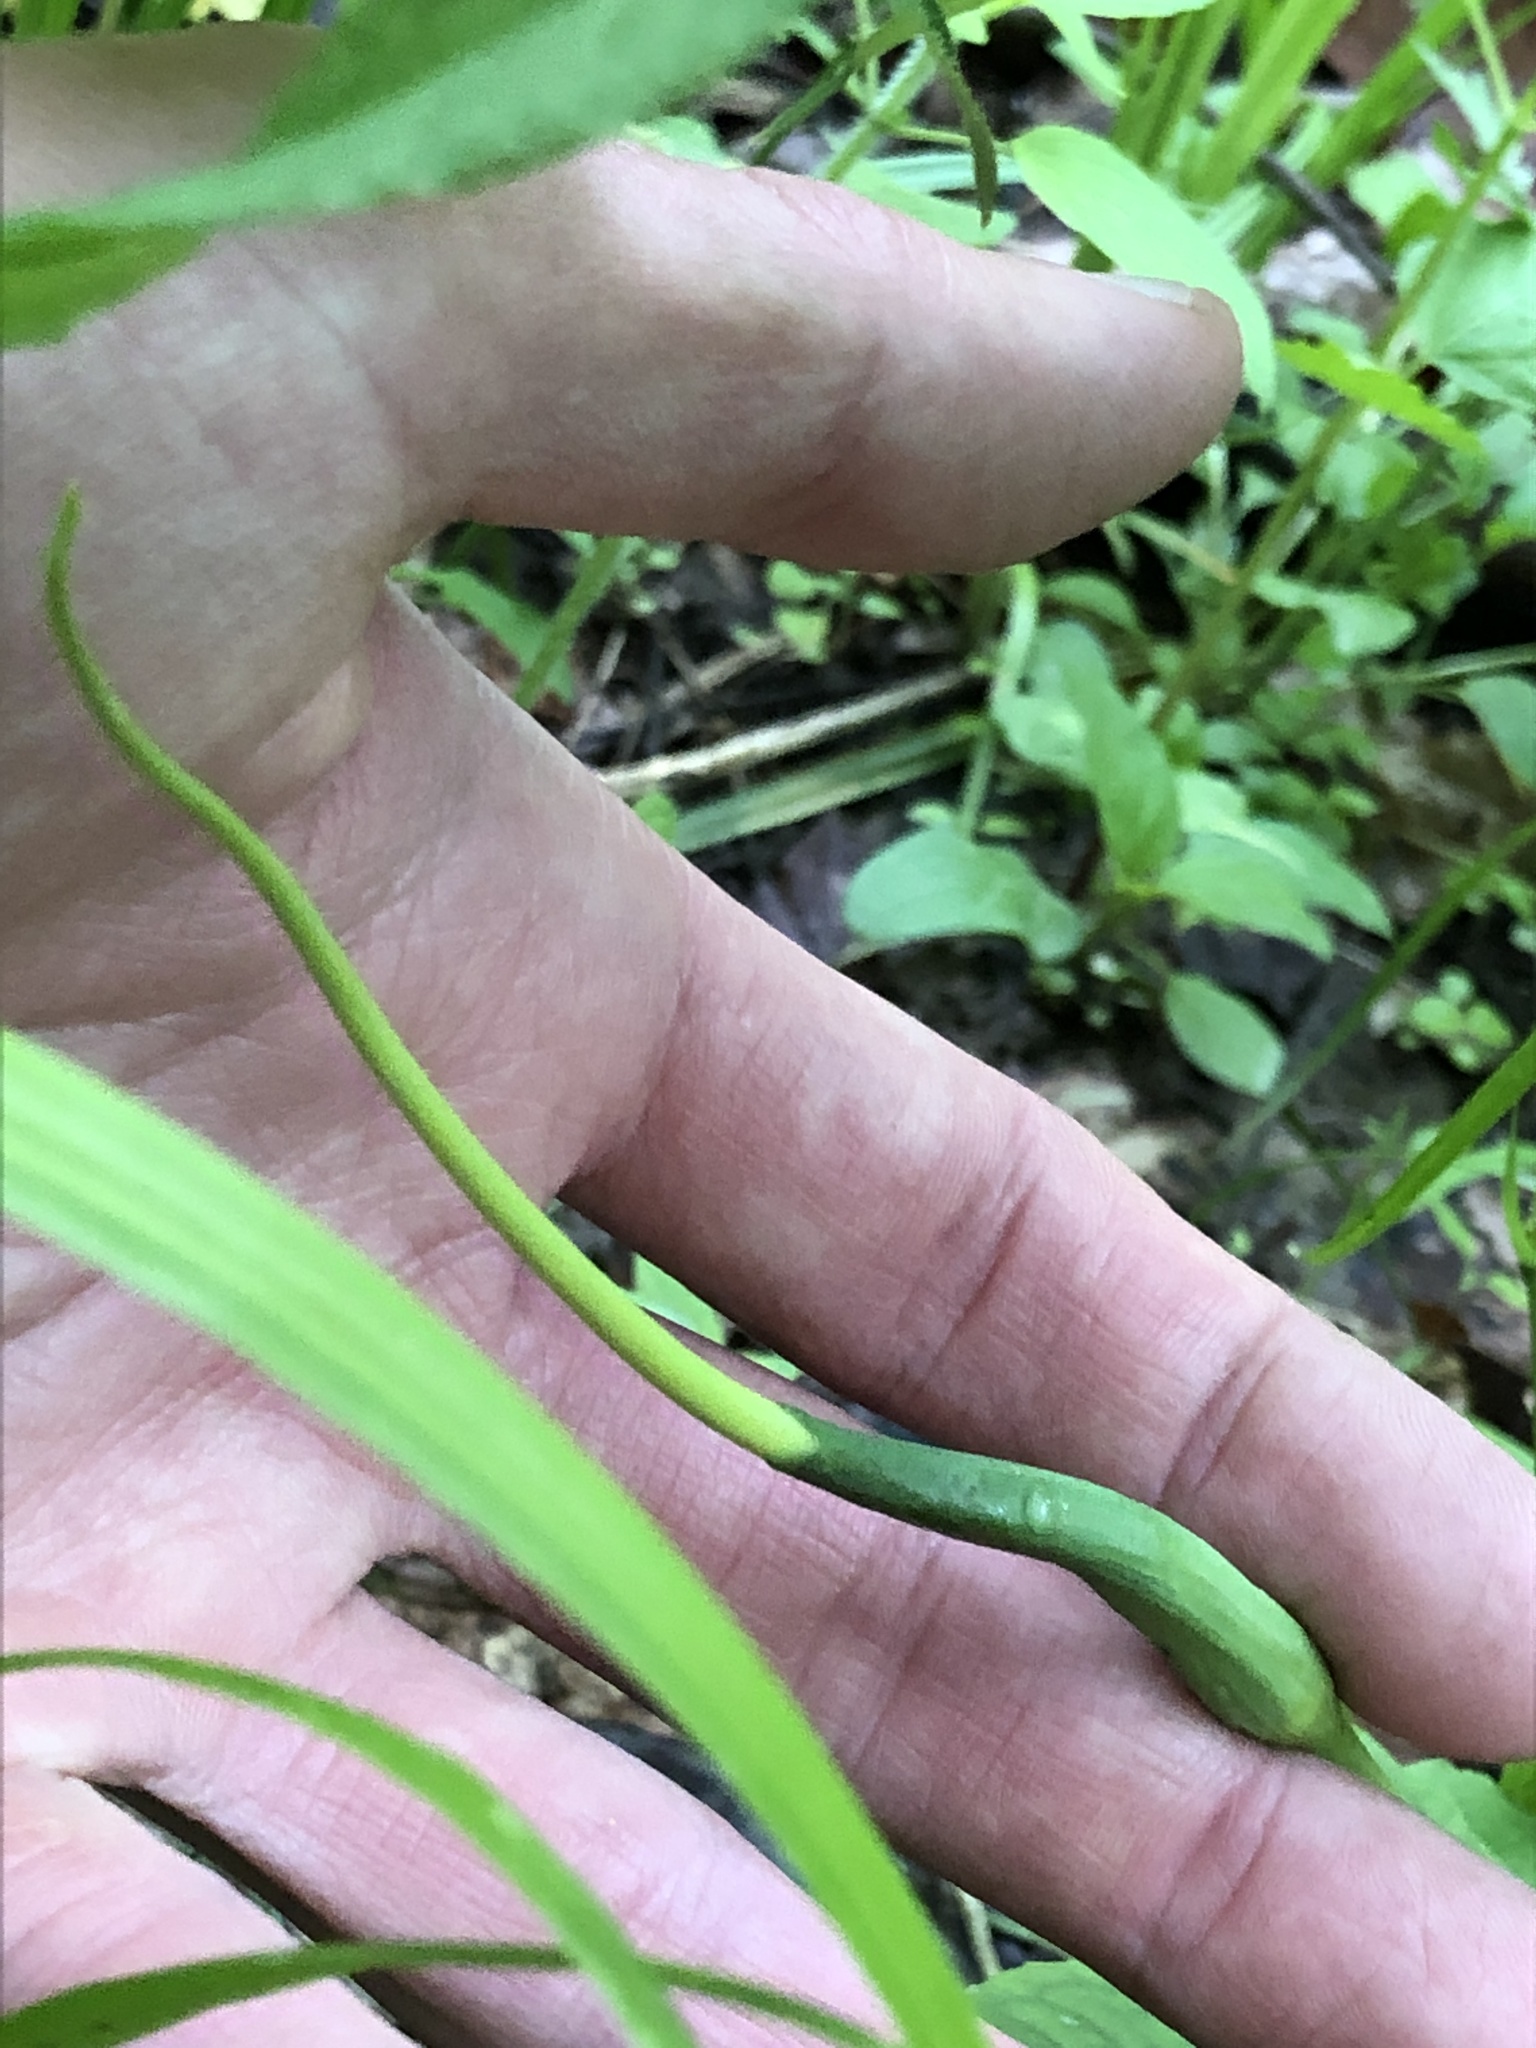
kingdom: Plantae
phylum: Tracheophyta
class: Liliopsida
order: Alismatales
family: Araceae
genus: Arisaema
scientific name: Arisaema dracontium
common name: Dragon-arum
